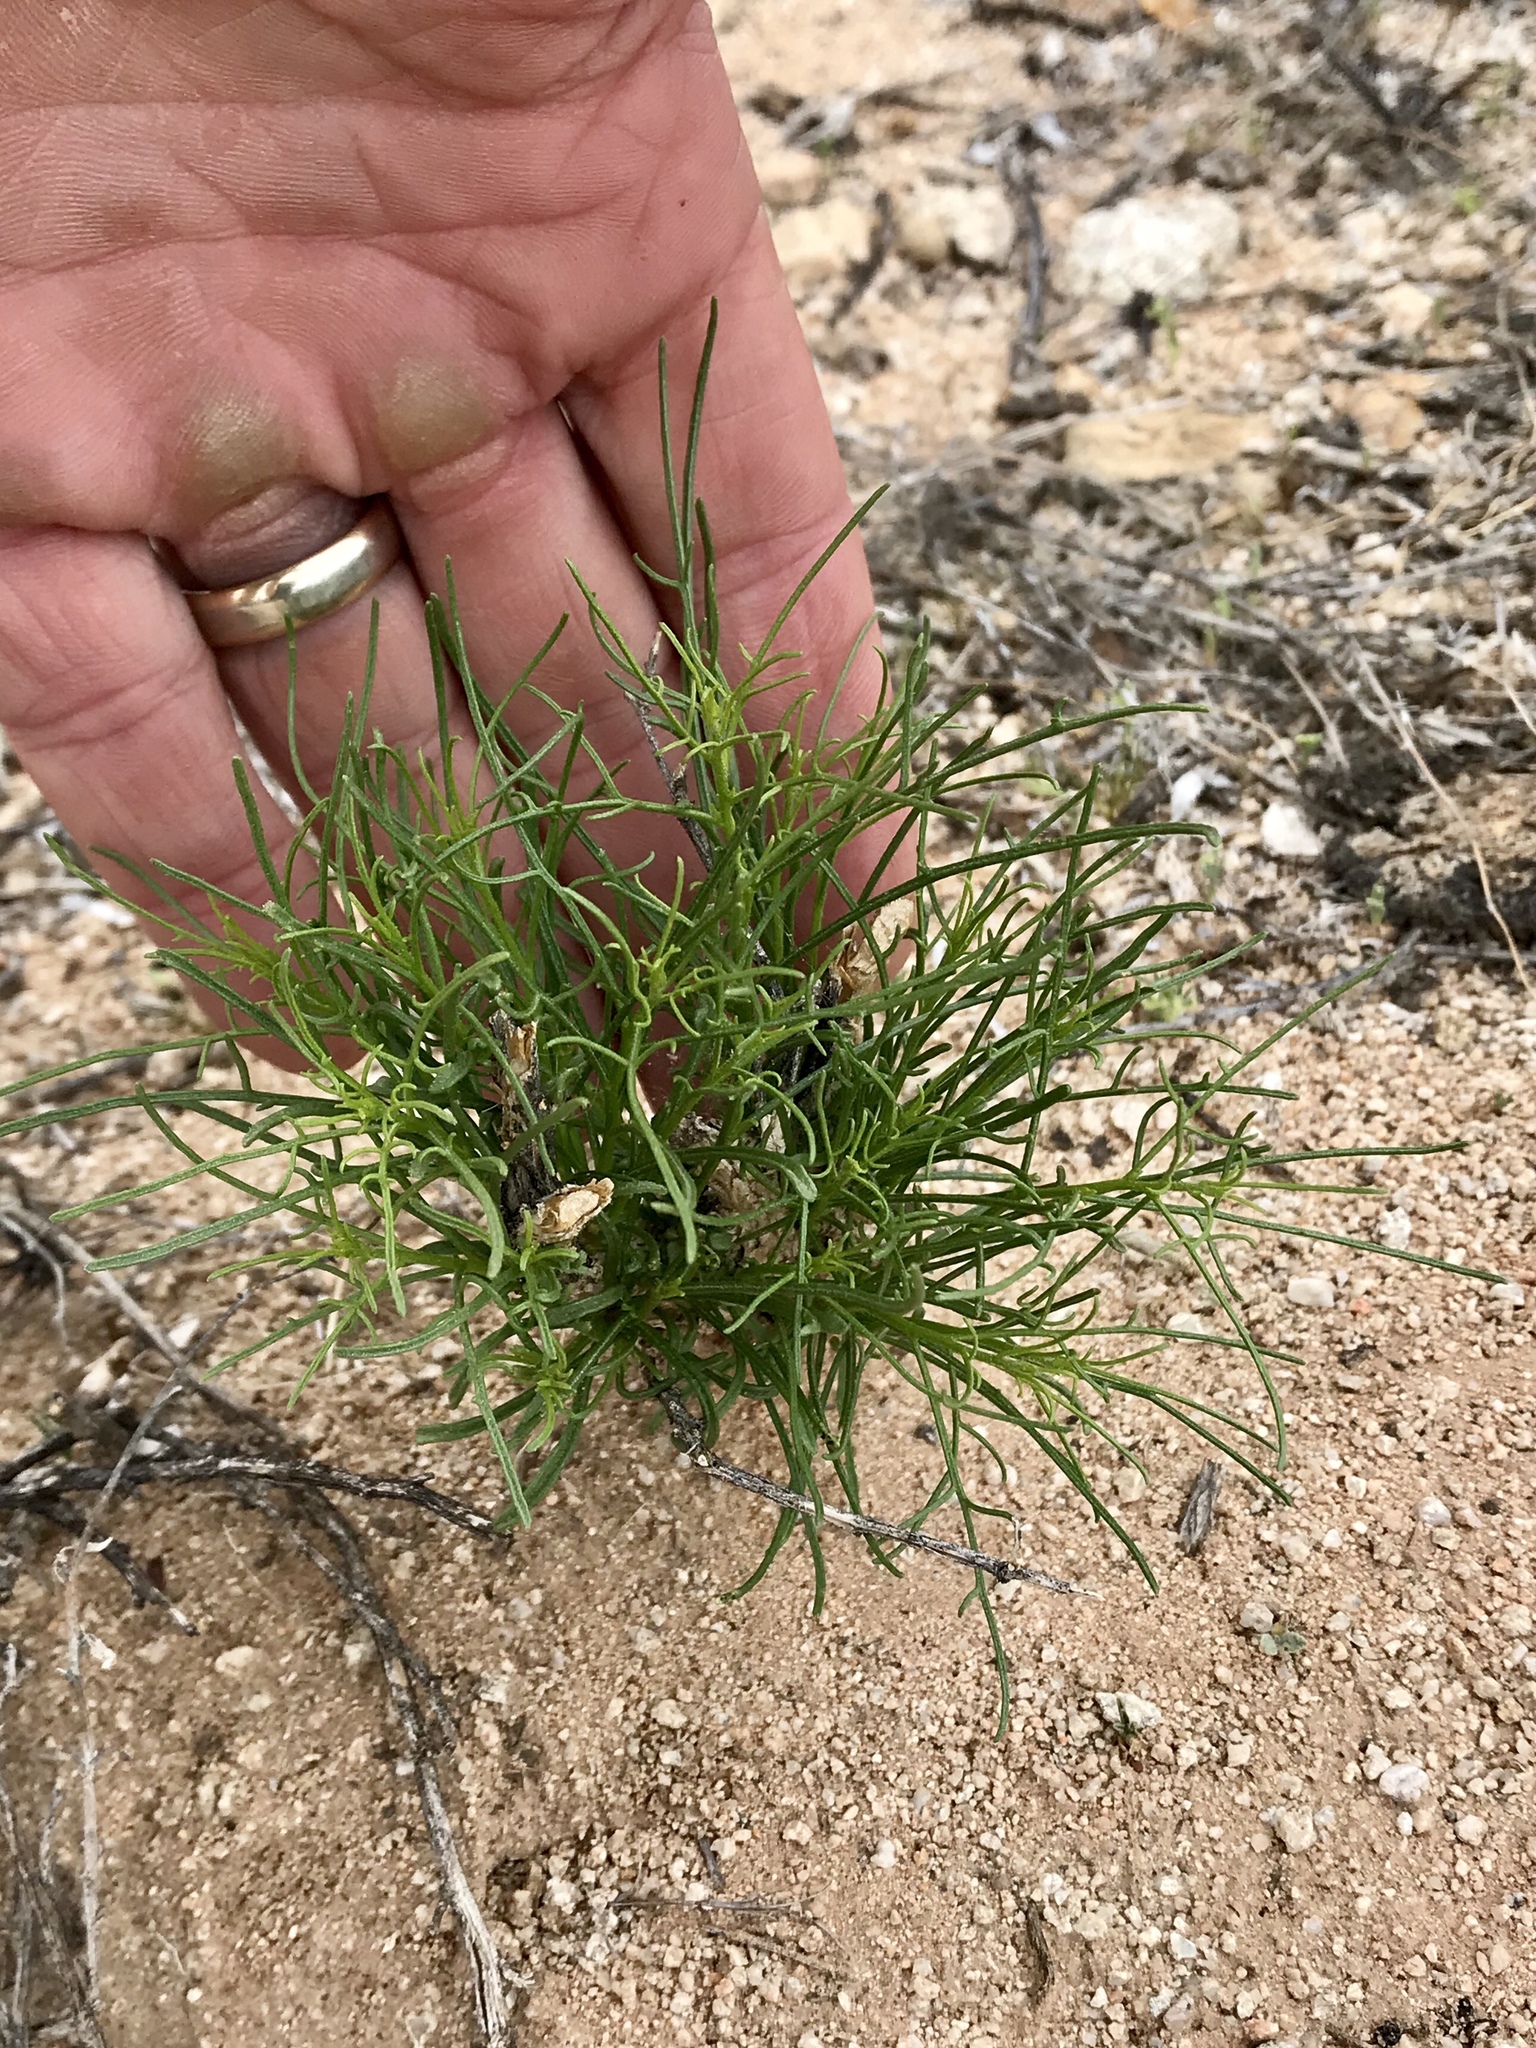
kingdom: Plantae
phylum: Tracheophyta
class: Magnoliopsida
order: Asterales
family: Asteraceae
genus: Ambrosia
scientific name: Ambrosia salsola
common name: Burrobrush
